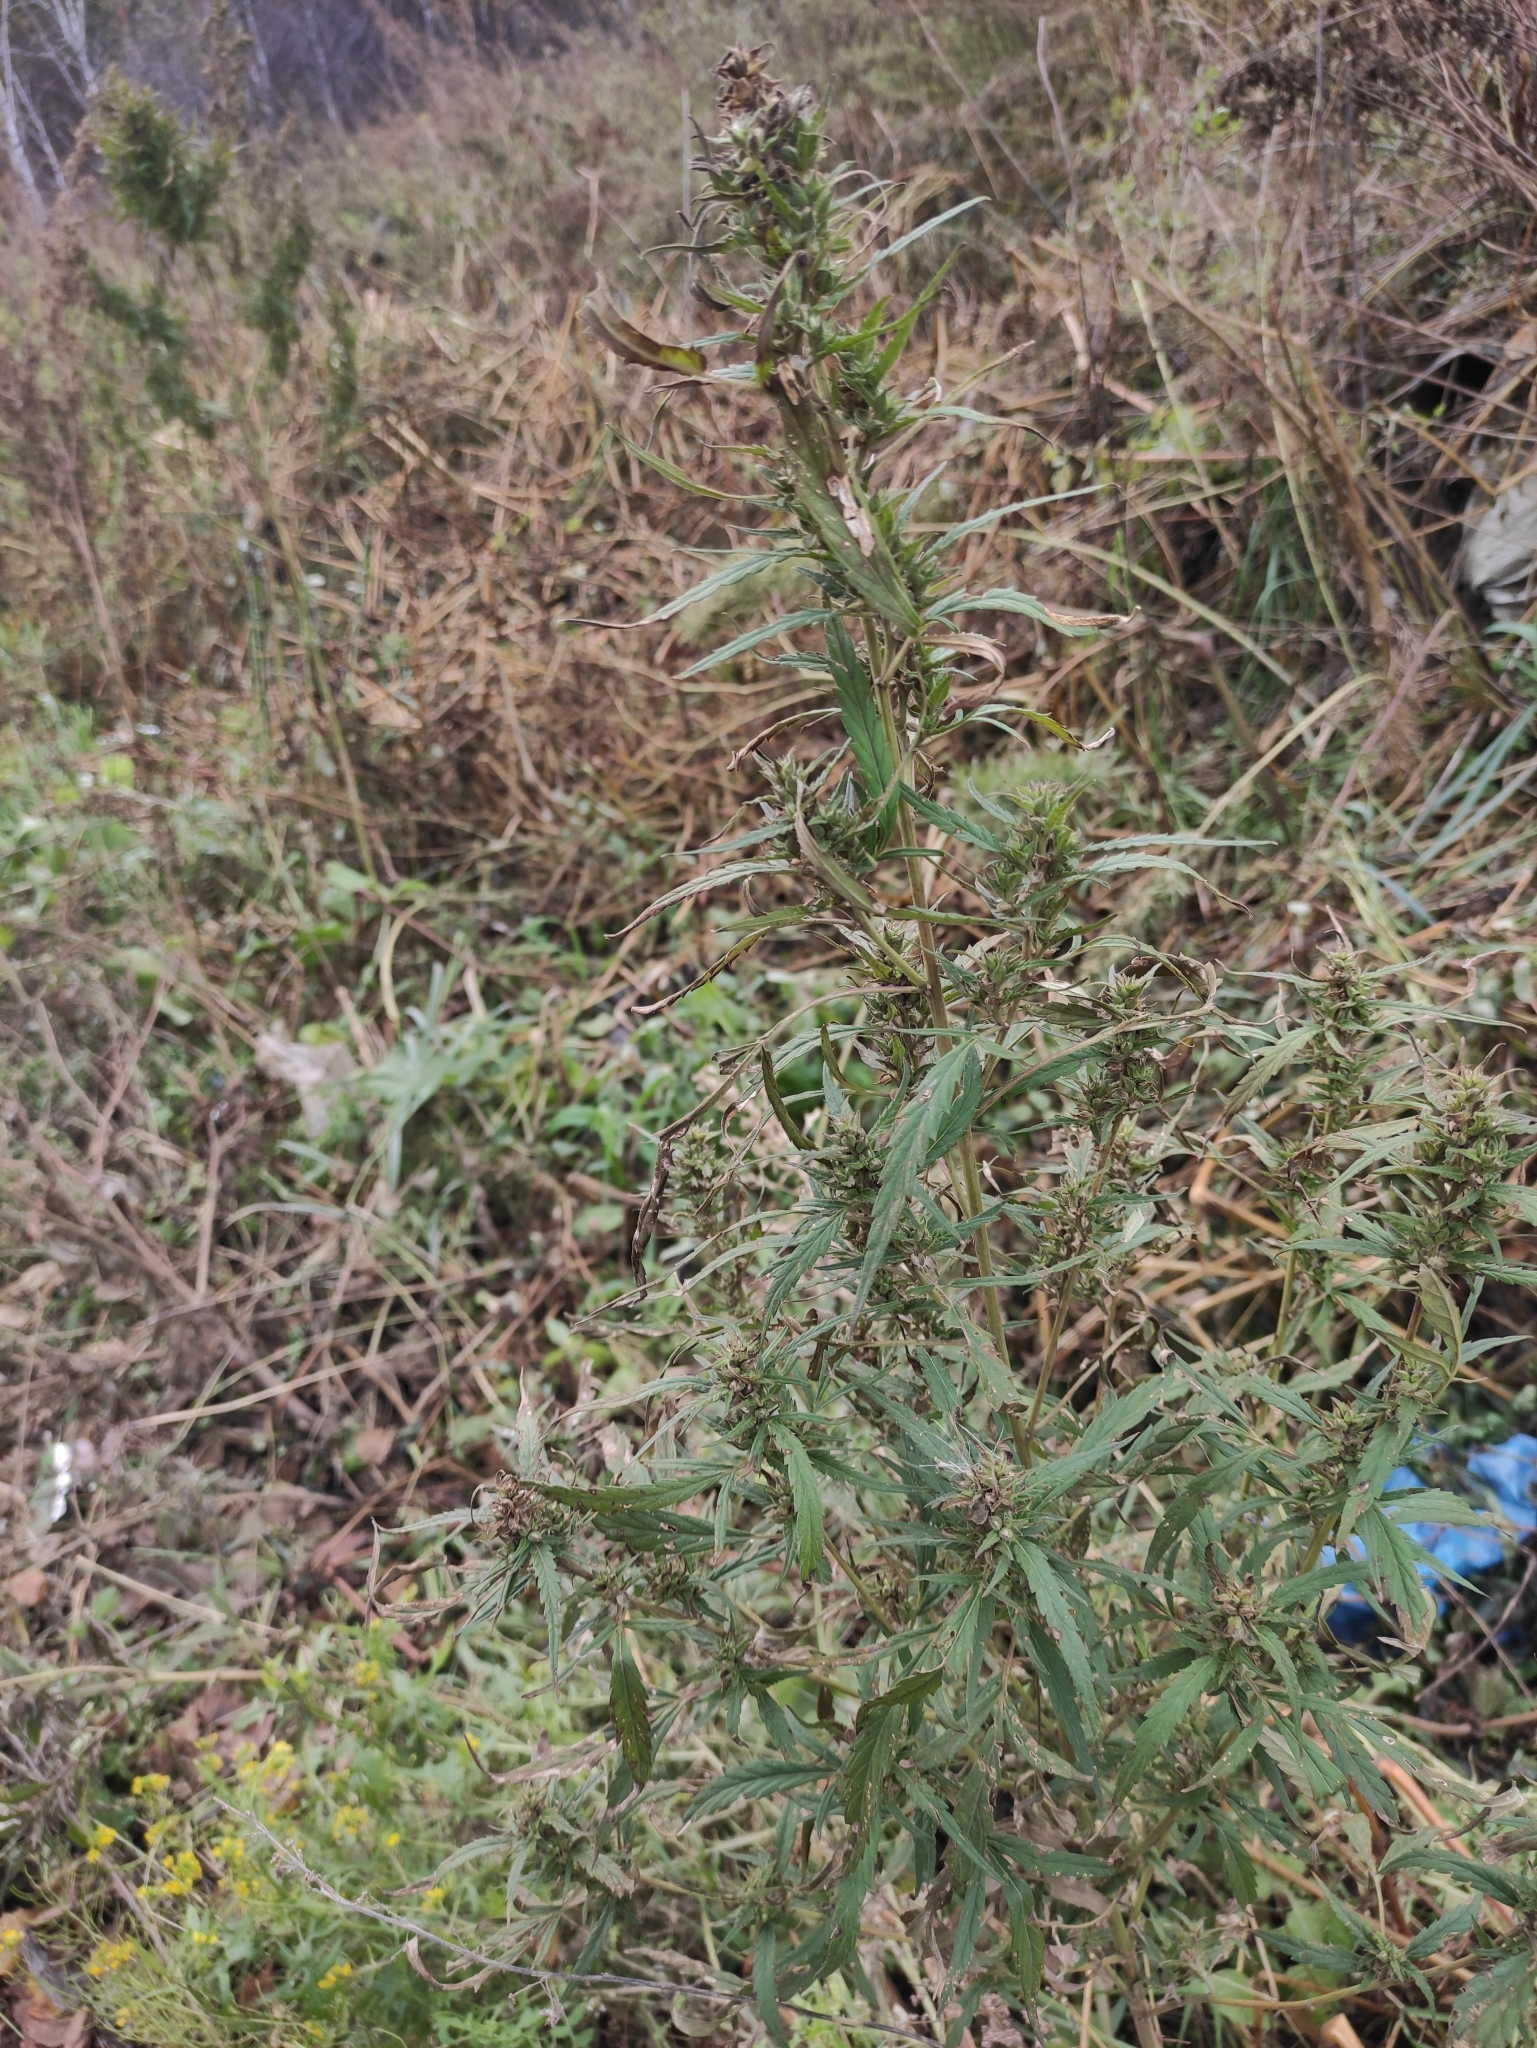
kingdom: Plantae
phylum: Tracheophyta
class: Magnoliopsida
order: Rosales
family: Cannabaceae
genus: Cannabis
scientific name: Cannabis sativa
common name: Hemp
